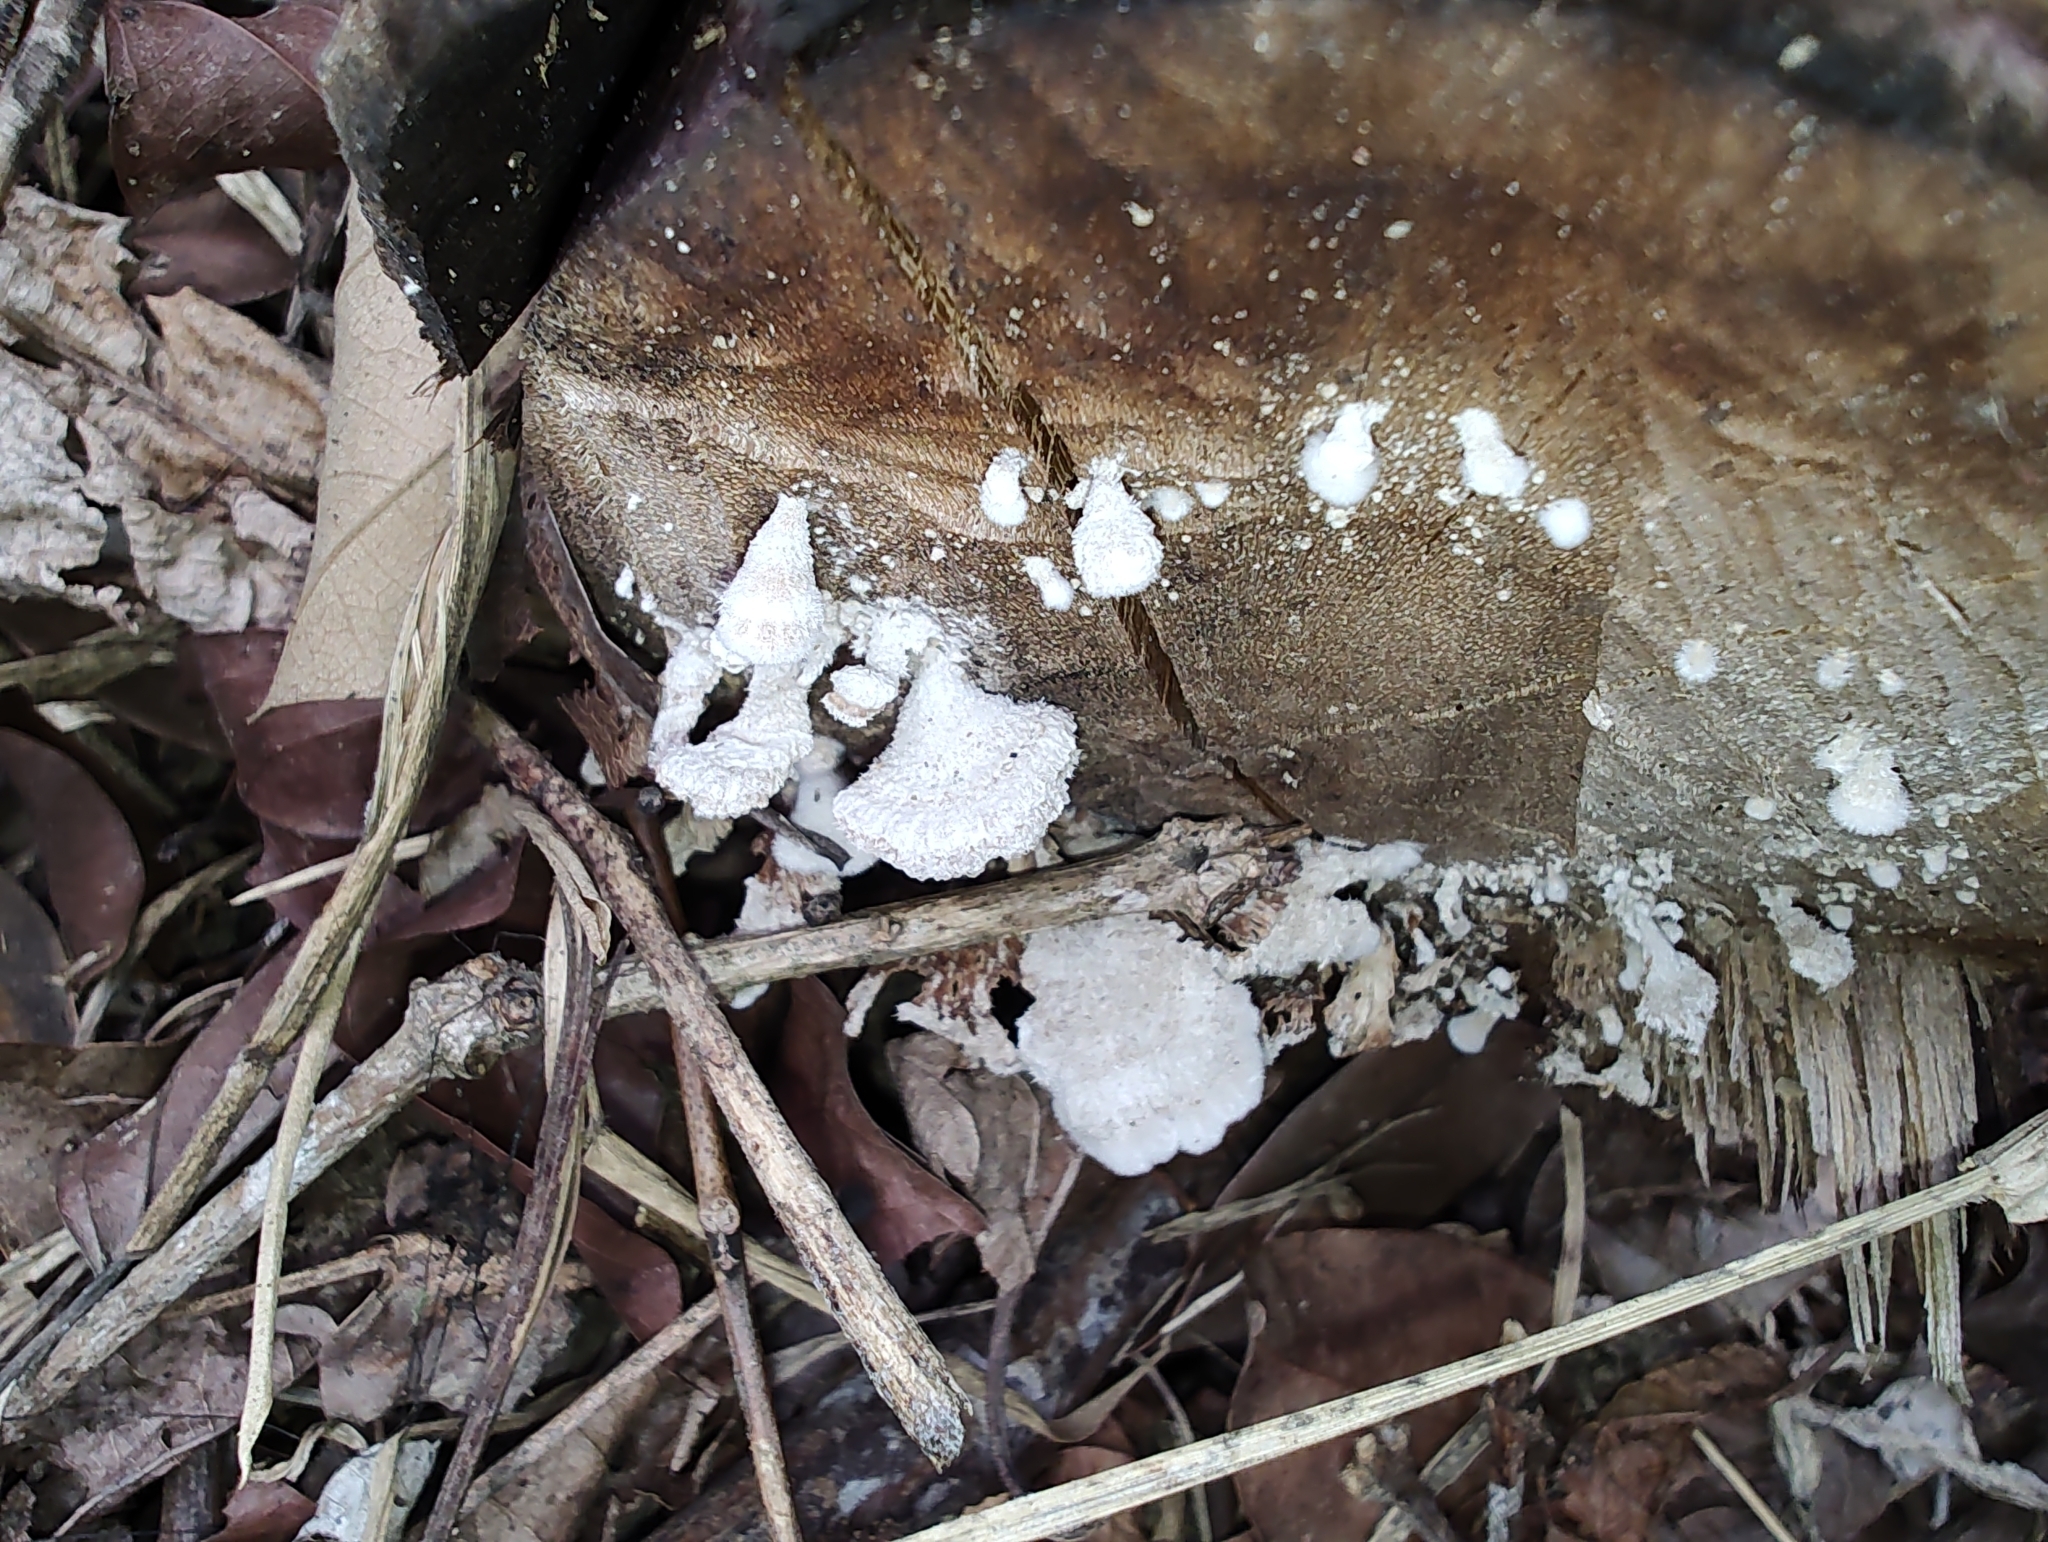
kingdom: Fungi
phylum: Basidiomycota
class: Agaricomycetes
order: Agaricales
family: Schizophyllaceae
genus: Schizophyllum
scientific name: Schizophyllum commune
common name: Common porecrust
